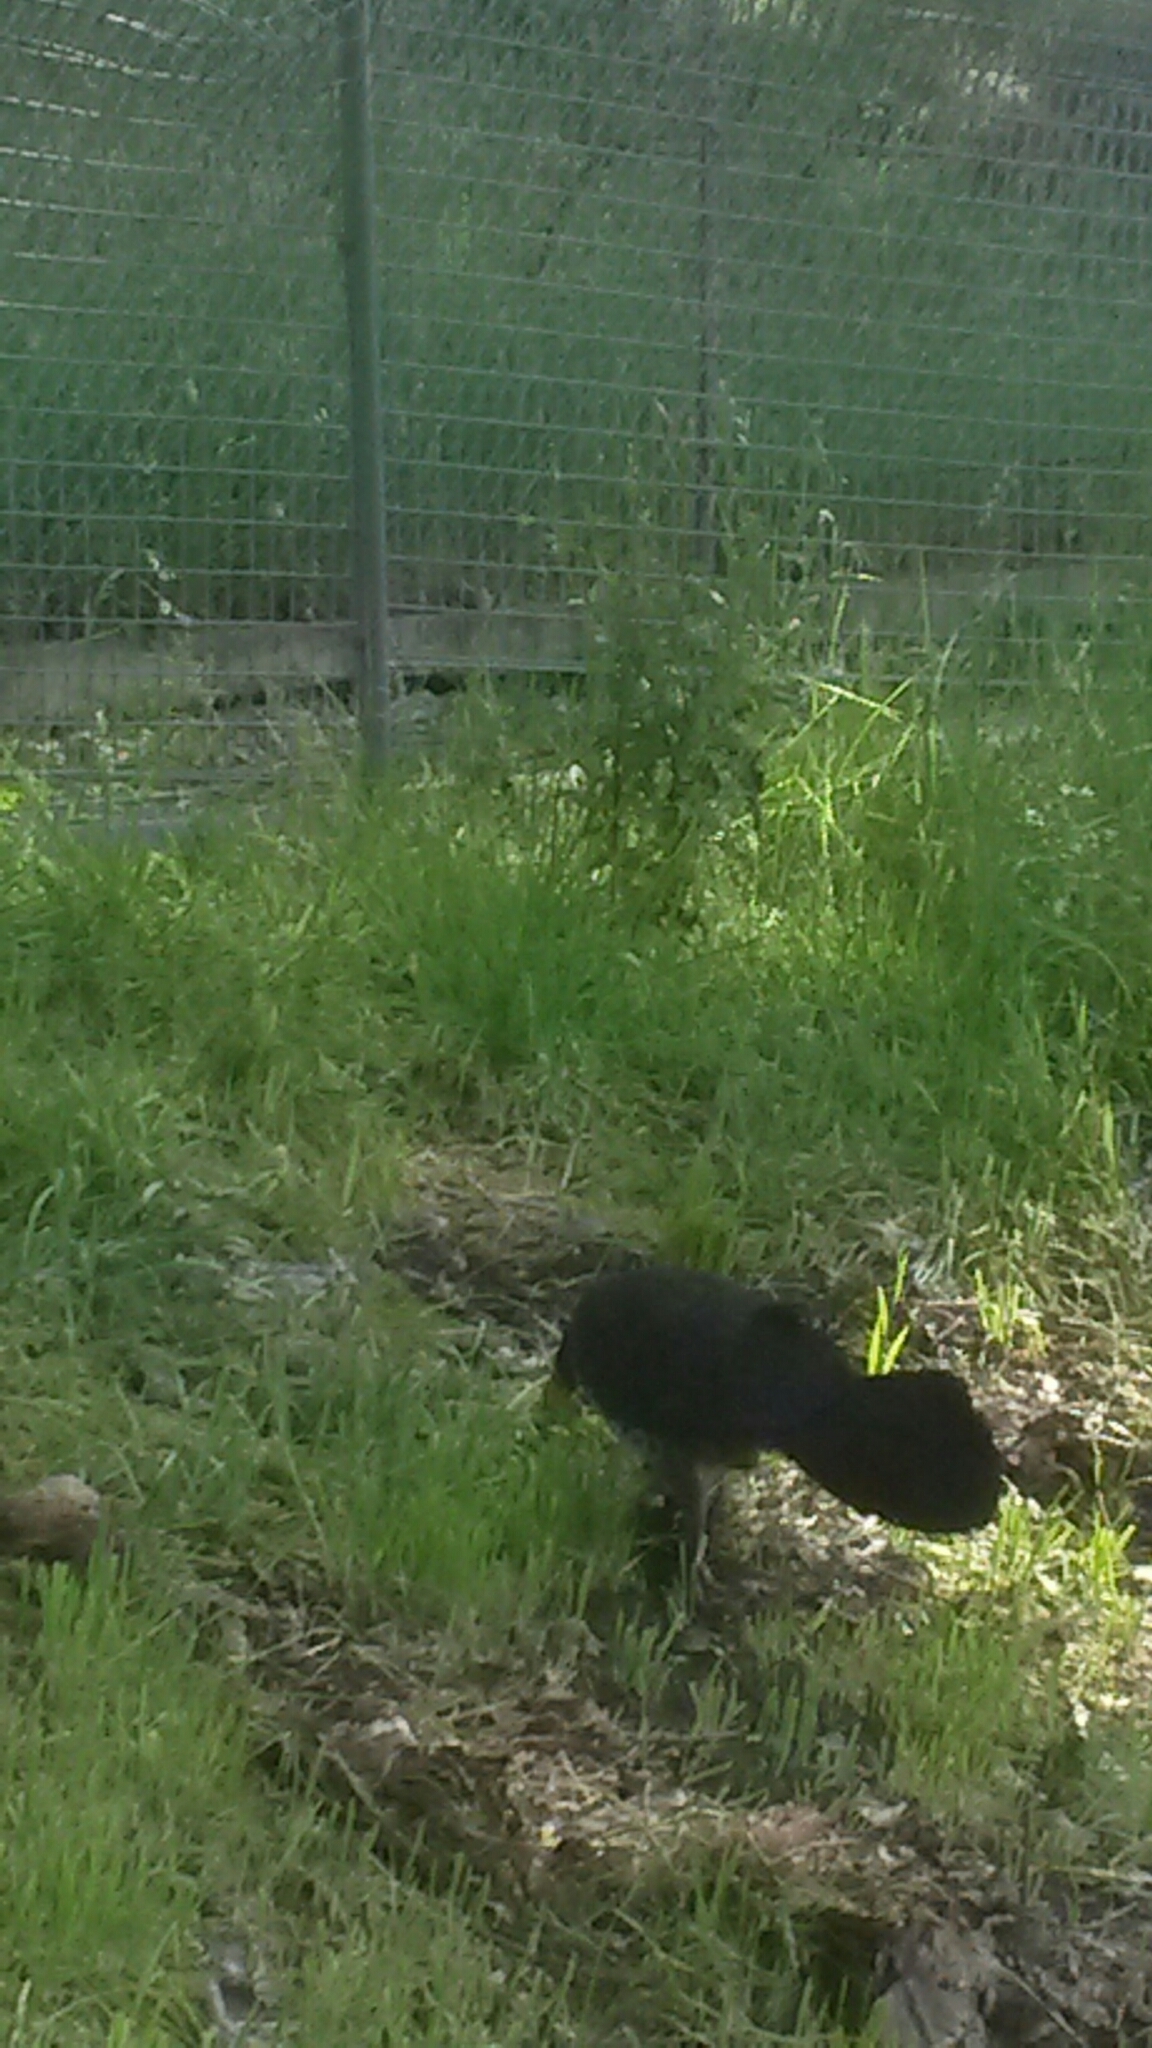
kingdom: Animalia
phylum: Chordata
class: Aves
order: Galliformes
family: Megapodiidae
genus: Alectura
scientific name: Alectura lathami
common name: Australian brushturkey
